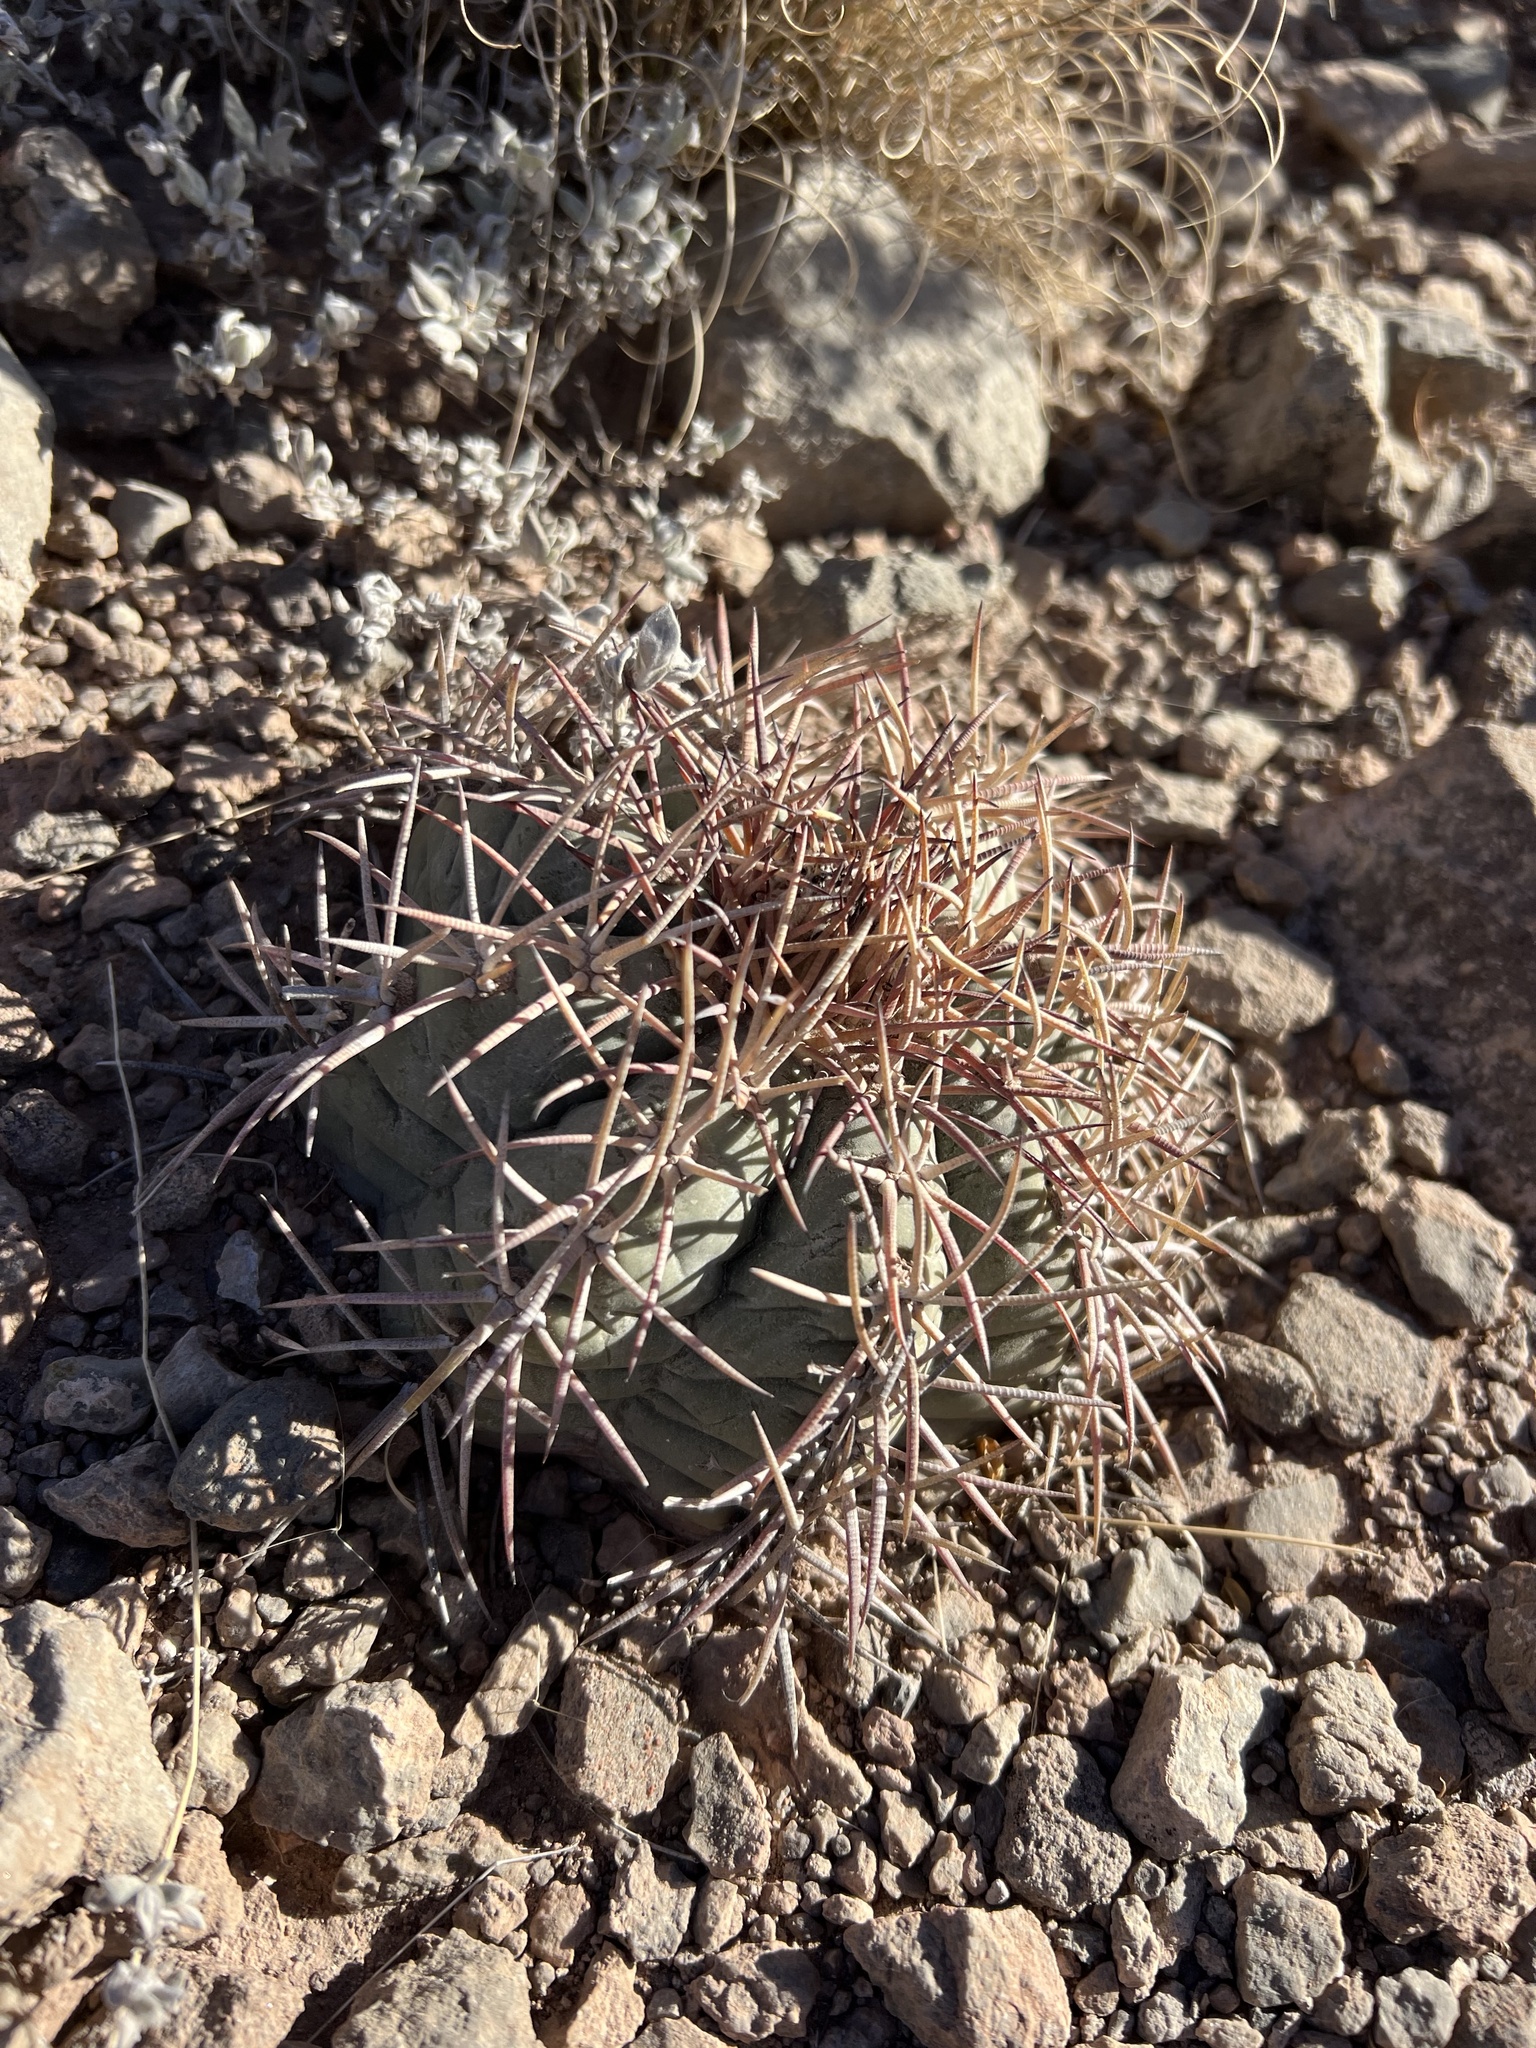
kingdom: Plantae
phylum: Tracheophyta
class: Magnoliopsida
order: Caryophyllales
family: Cactaceae
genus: Echinocactus
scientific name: Echinocactus horizonthalonius
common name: Devilshead
